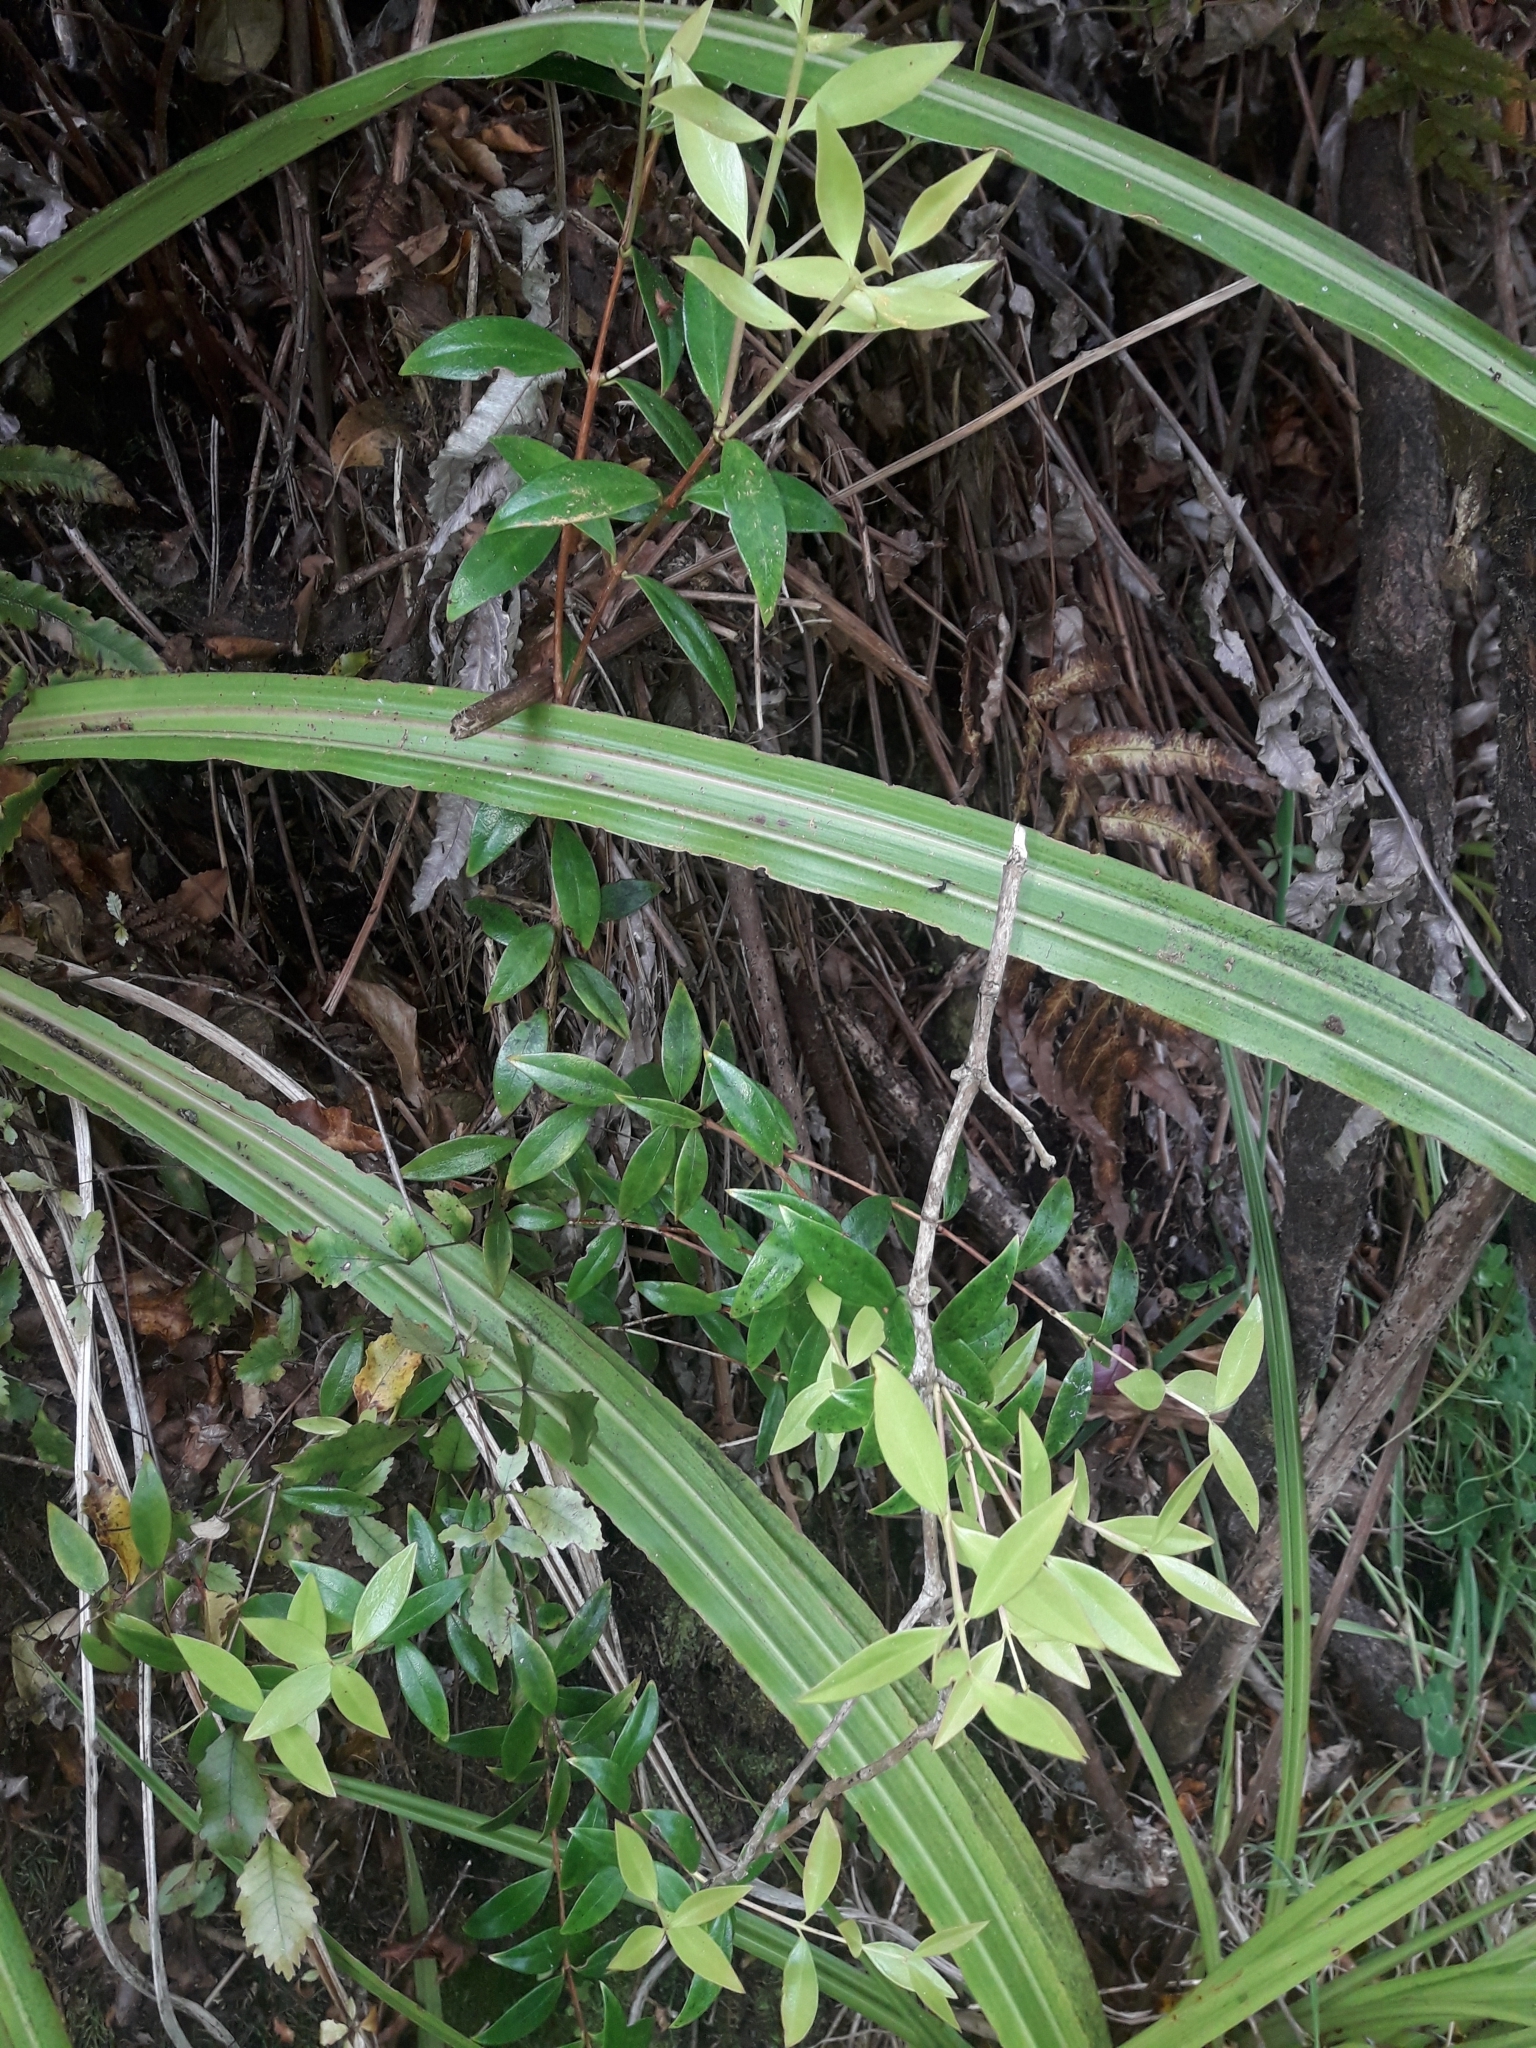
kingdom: Plantae
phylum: Tracheophyta
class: Magnoliopsida
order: Myrtales
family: Myrtaceae
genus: Metrosideros
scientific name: Metrosideros umbellata
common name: Southern rata
